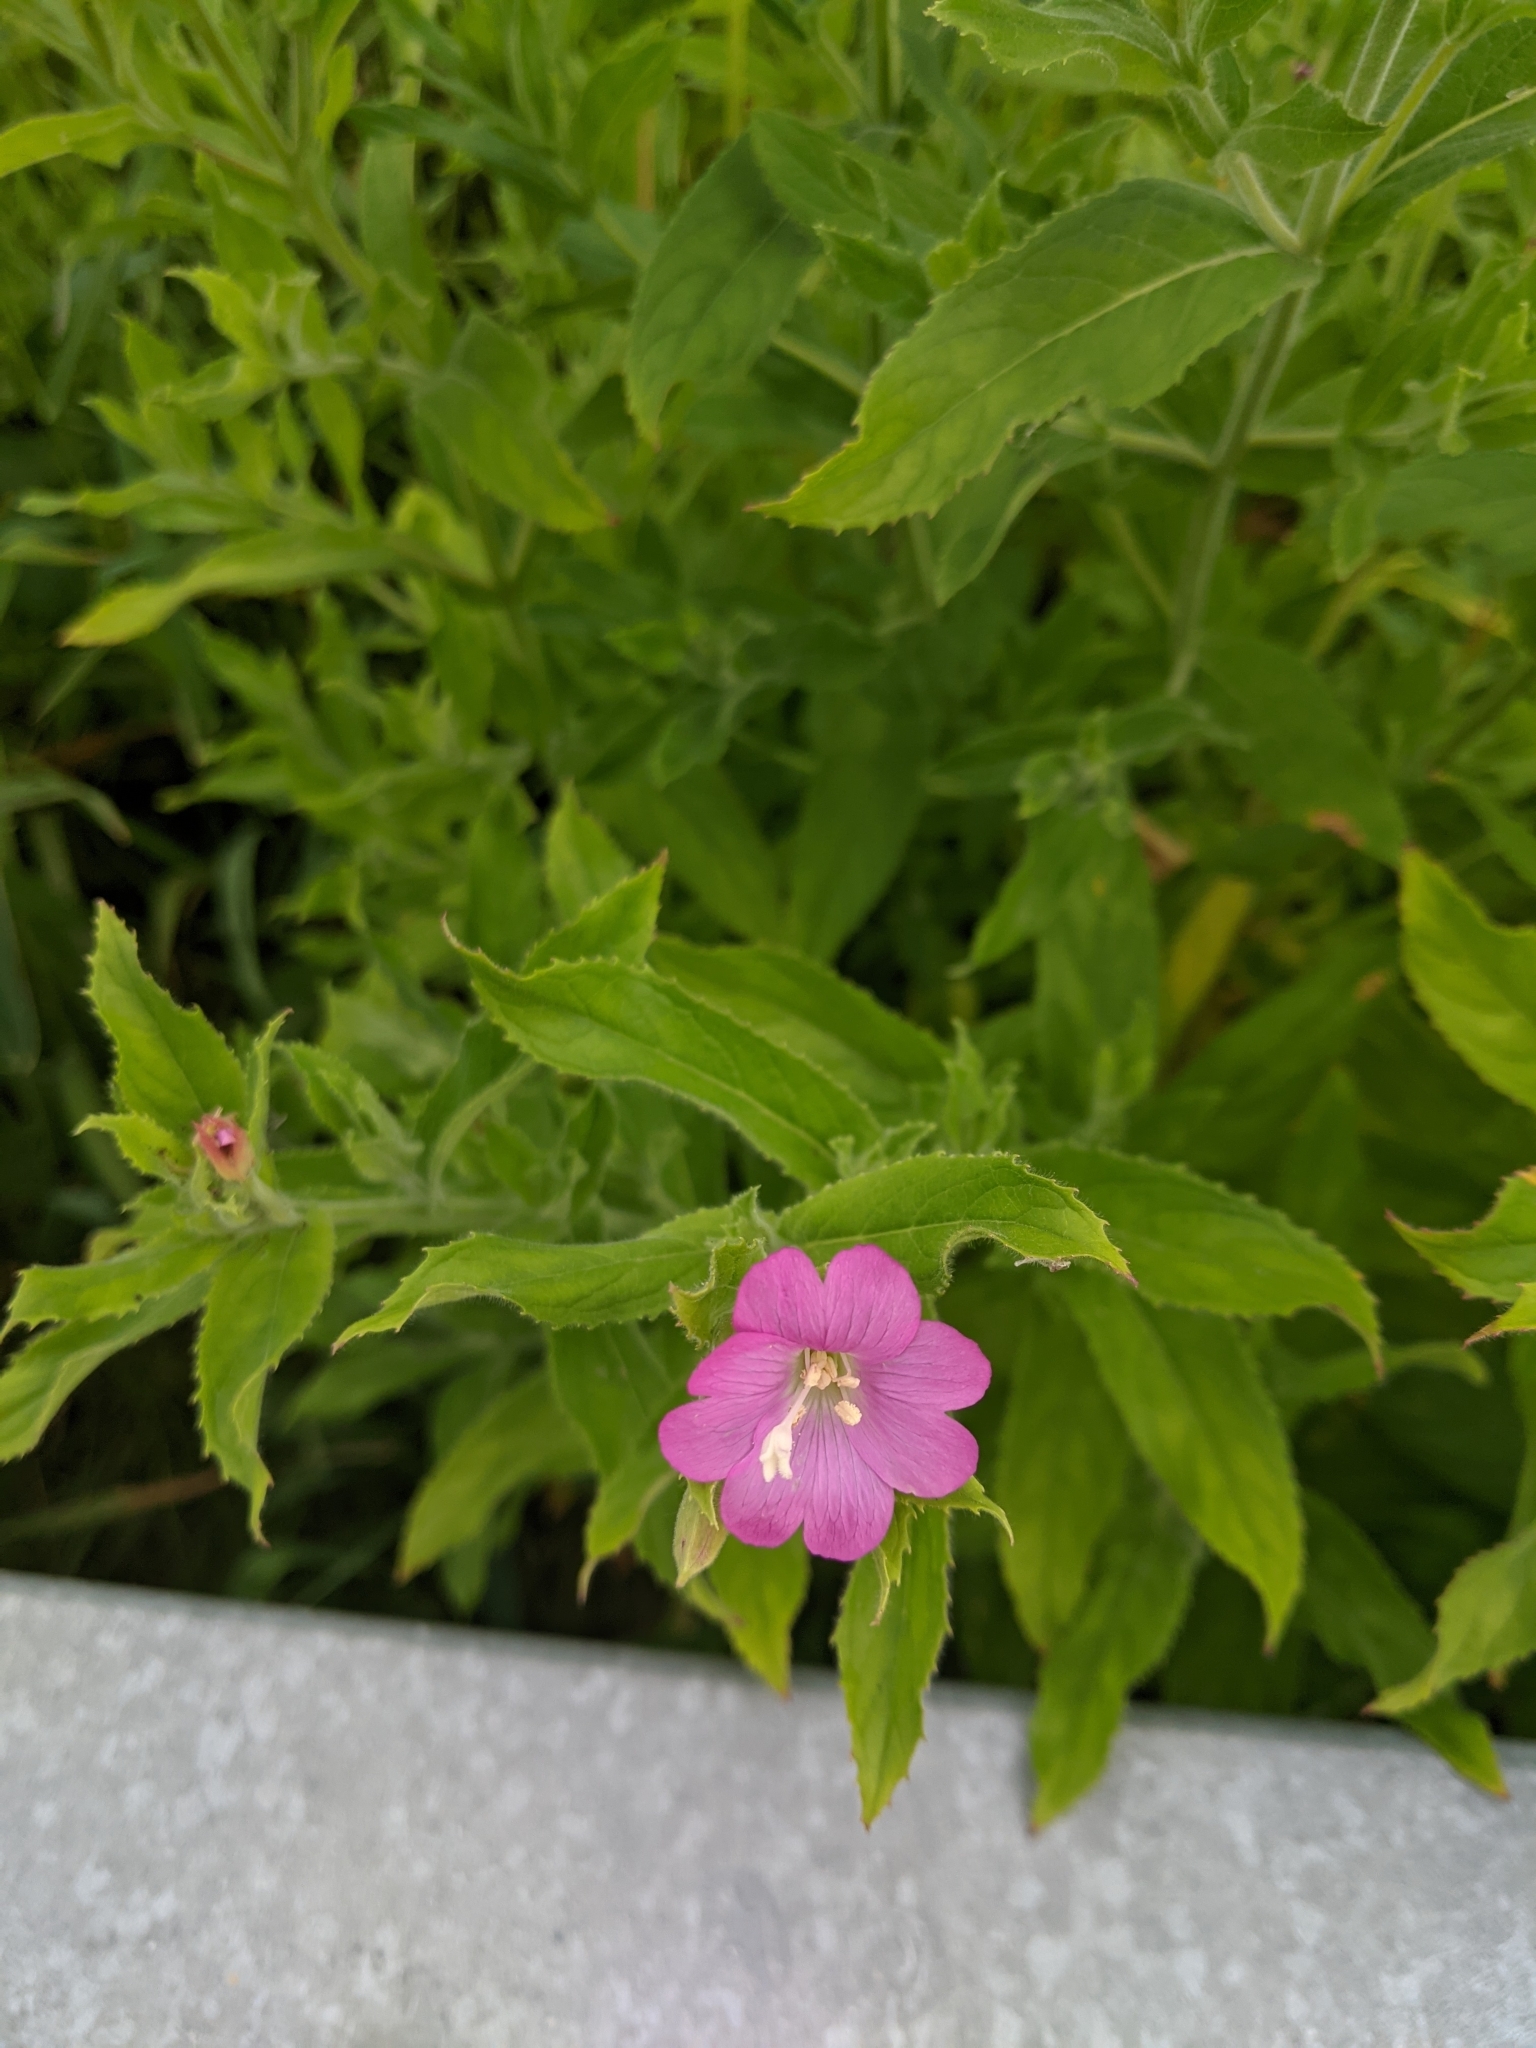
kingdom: Plantae
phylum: Tracheophyta
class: Magnoliopsida
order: Myrtales
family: Onagraceae
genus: Epilobium
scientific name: Epilobium hirsutum
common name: Great willowherb
